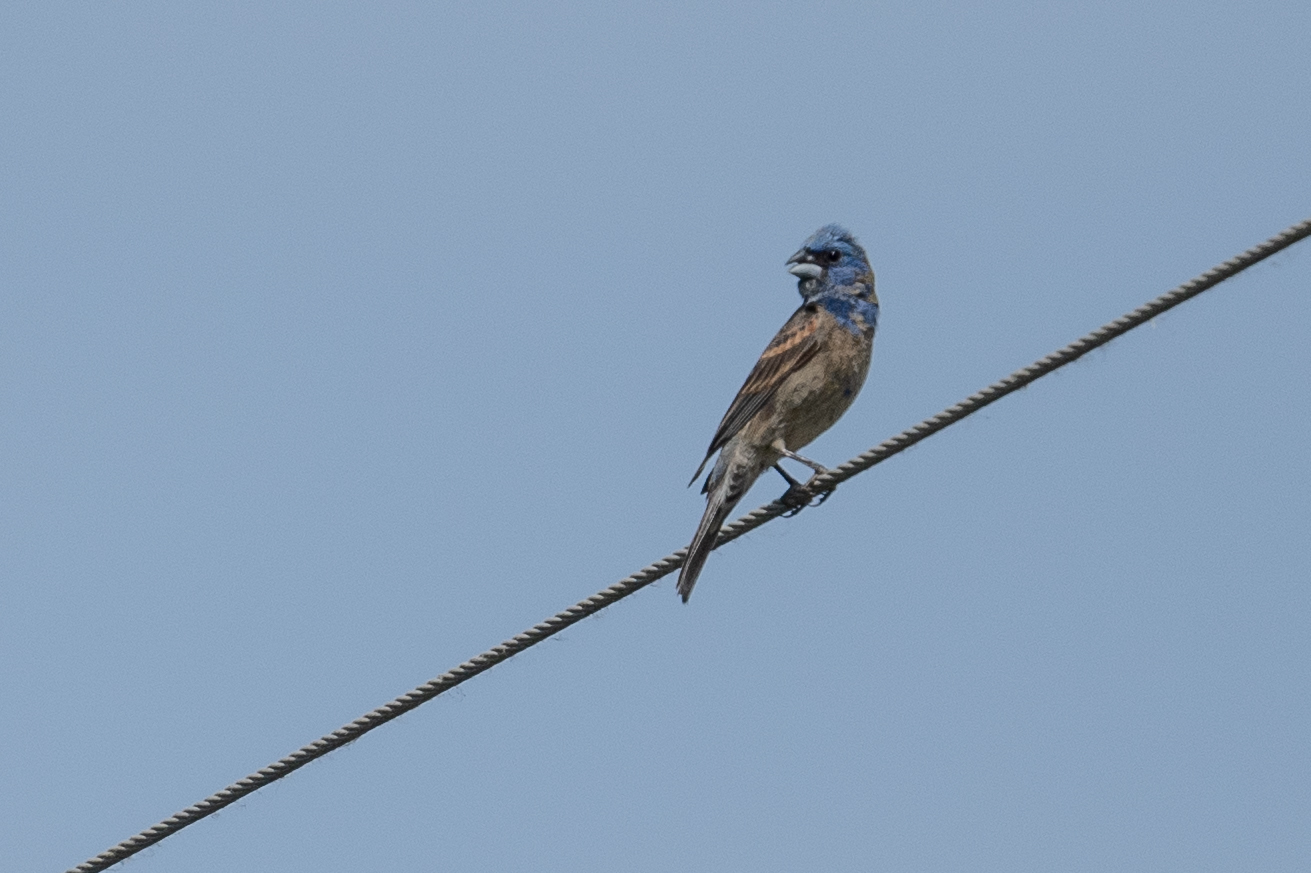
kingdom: Animalia
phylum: Chordata
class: Aves
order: Passeriformes
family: Cardinalidae
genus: Passerina
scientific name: Passerina caerulea
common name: Blue grosbeak
